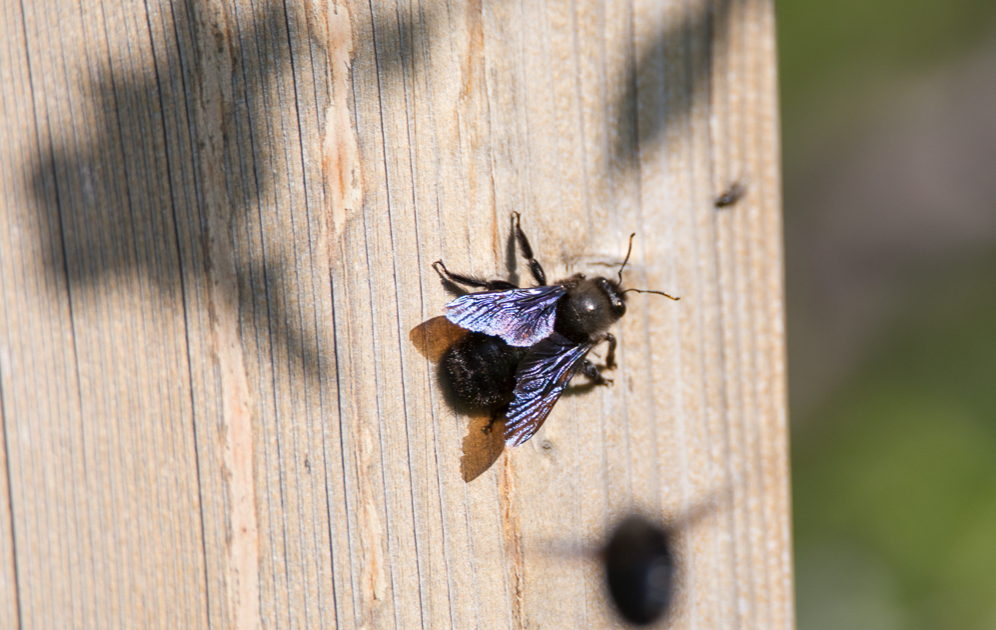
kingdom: Animalia
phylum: Arthropoda
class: Insecta
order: Hymenoptera
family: Apidae
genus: Xylocopa
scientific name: Xylocopa violacea
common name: Violet carpenter bee
